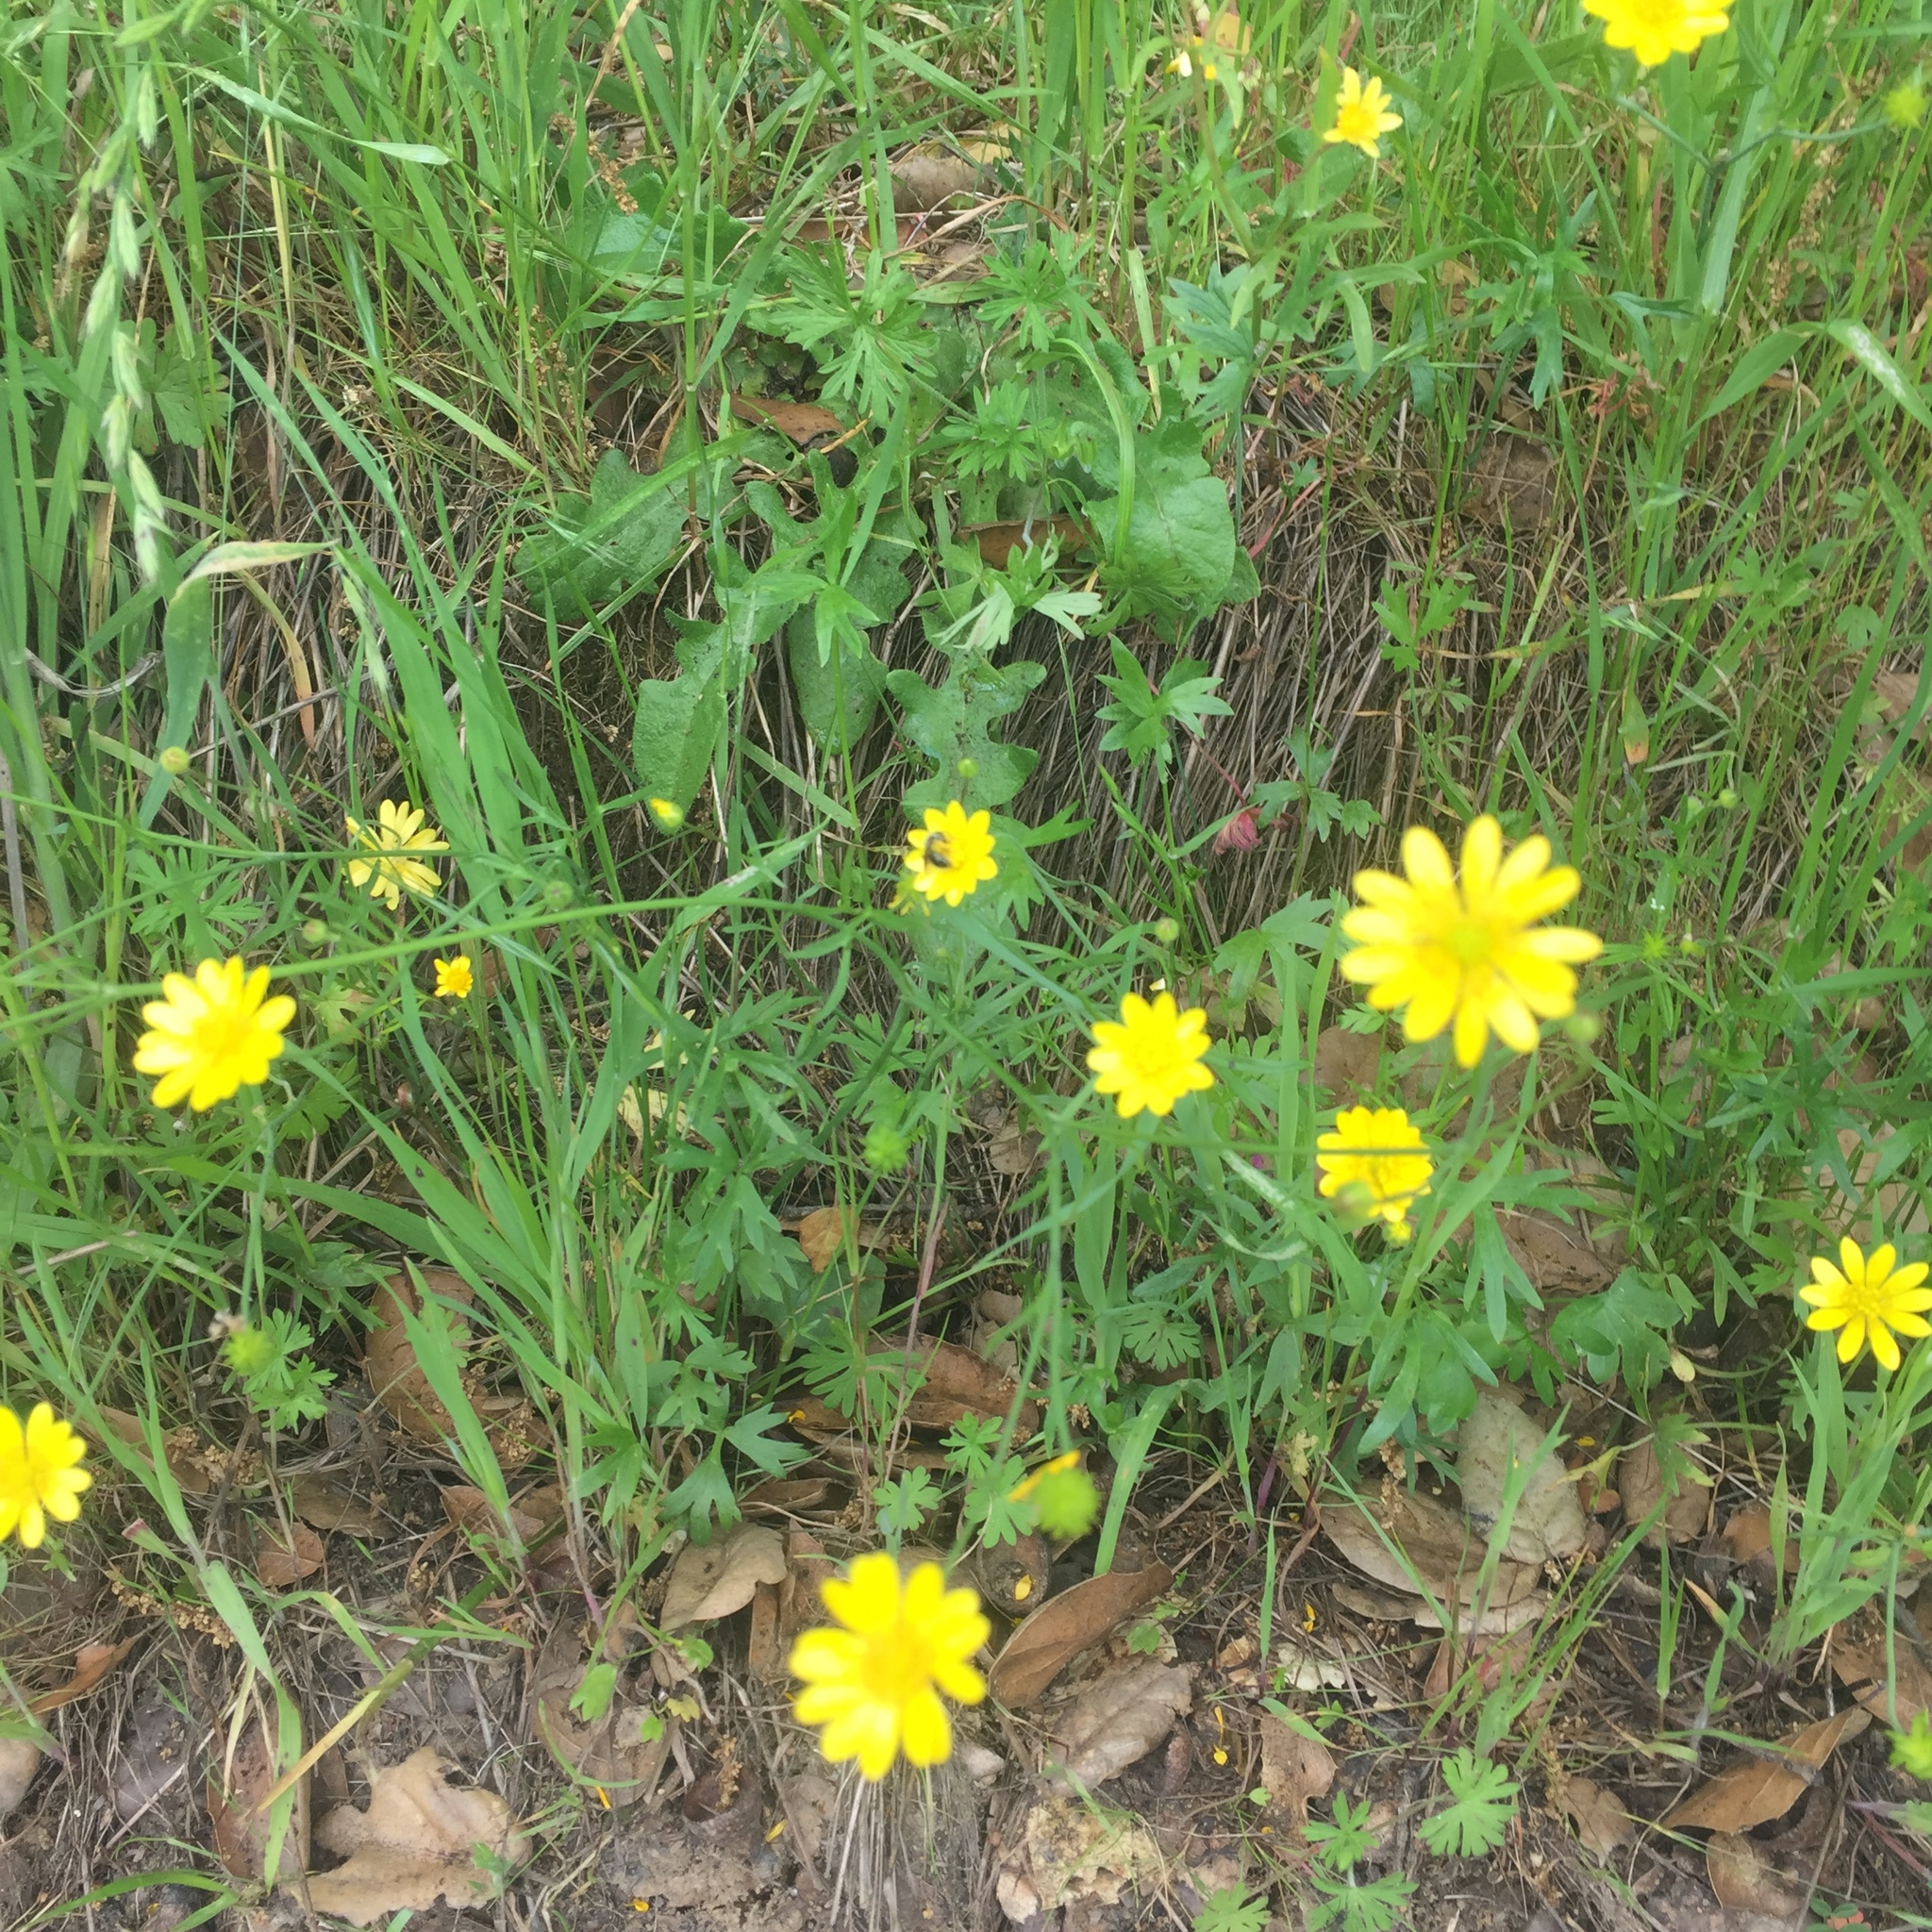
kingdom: Plantae
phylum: Tracheophyta
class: Magnoliopsida
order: Ranunculales
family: Ranunculaceae
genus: Ranunculus
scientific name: Ranunculus californicus
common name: California buttercup
